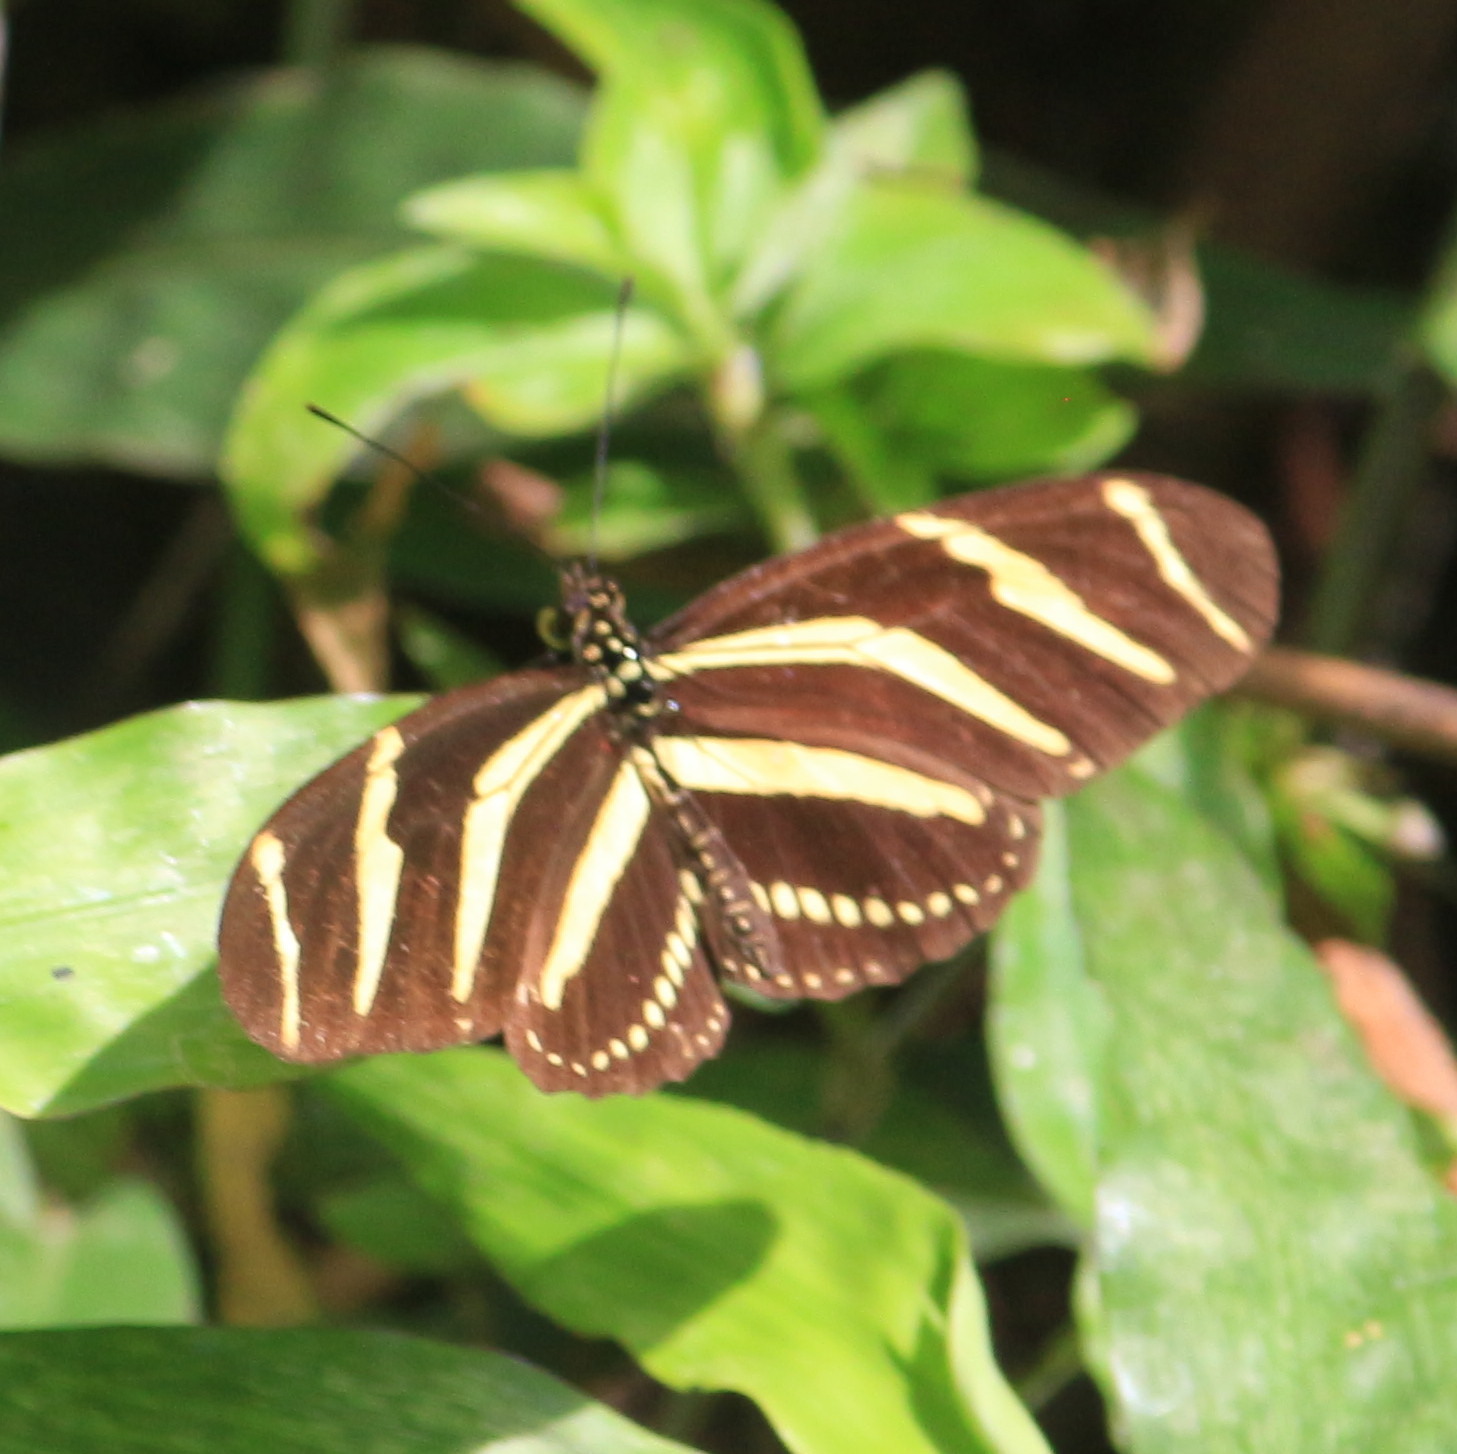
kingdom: Animalia
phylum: Arthropoda
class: Insecta
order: Lepidoptera
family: Nymphalidae
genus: Heliconius
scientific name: Heliconius charithonia
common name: Zebra long wing
